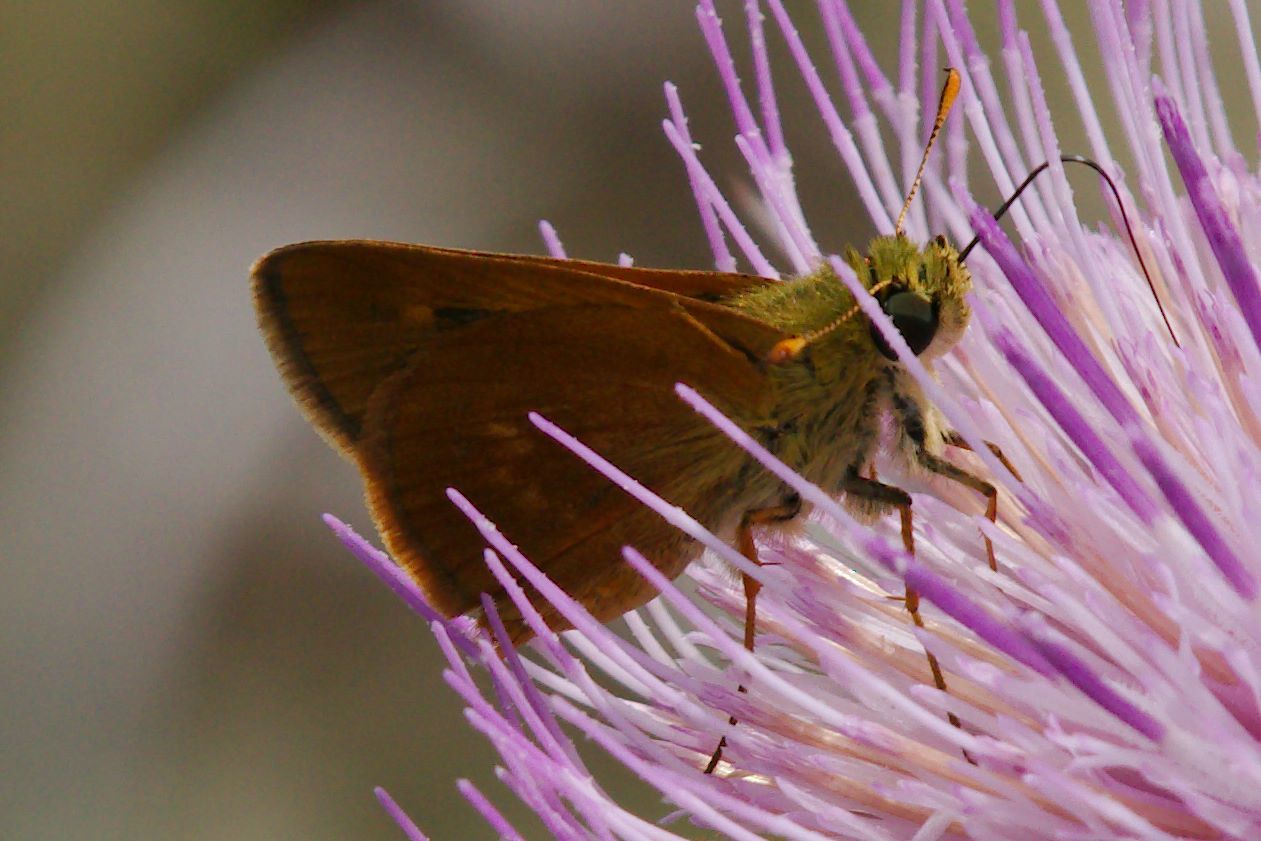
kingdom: Animalia
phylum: Arthropoda
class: Insecta
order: Lepidoptera
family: Hesperiidae
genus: Polites
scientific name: Polites otho
